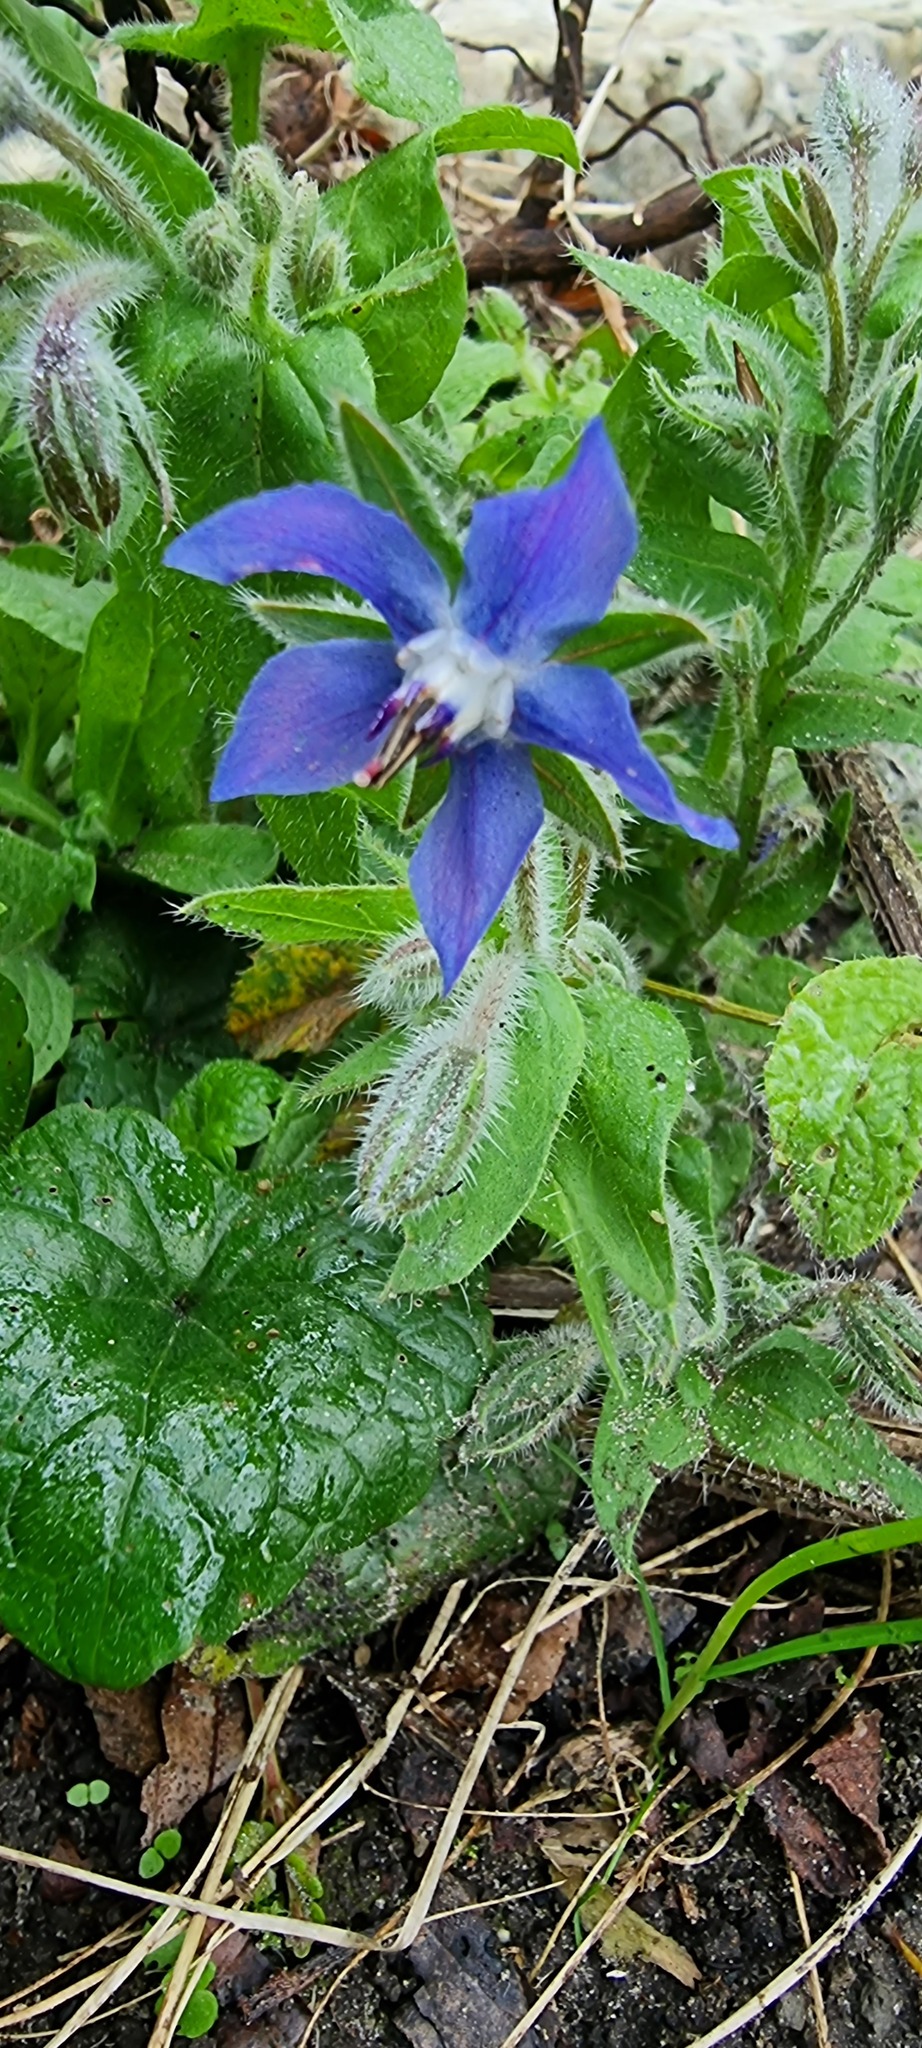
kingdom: Plantae
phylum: Tracheophyta
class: Magnoliopsida
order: Boraginales
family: Boraginaceae
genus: Borago
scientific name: Borago officinalis
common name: Borage
